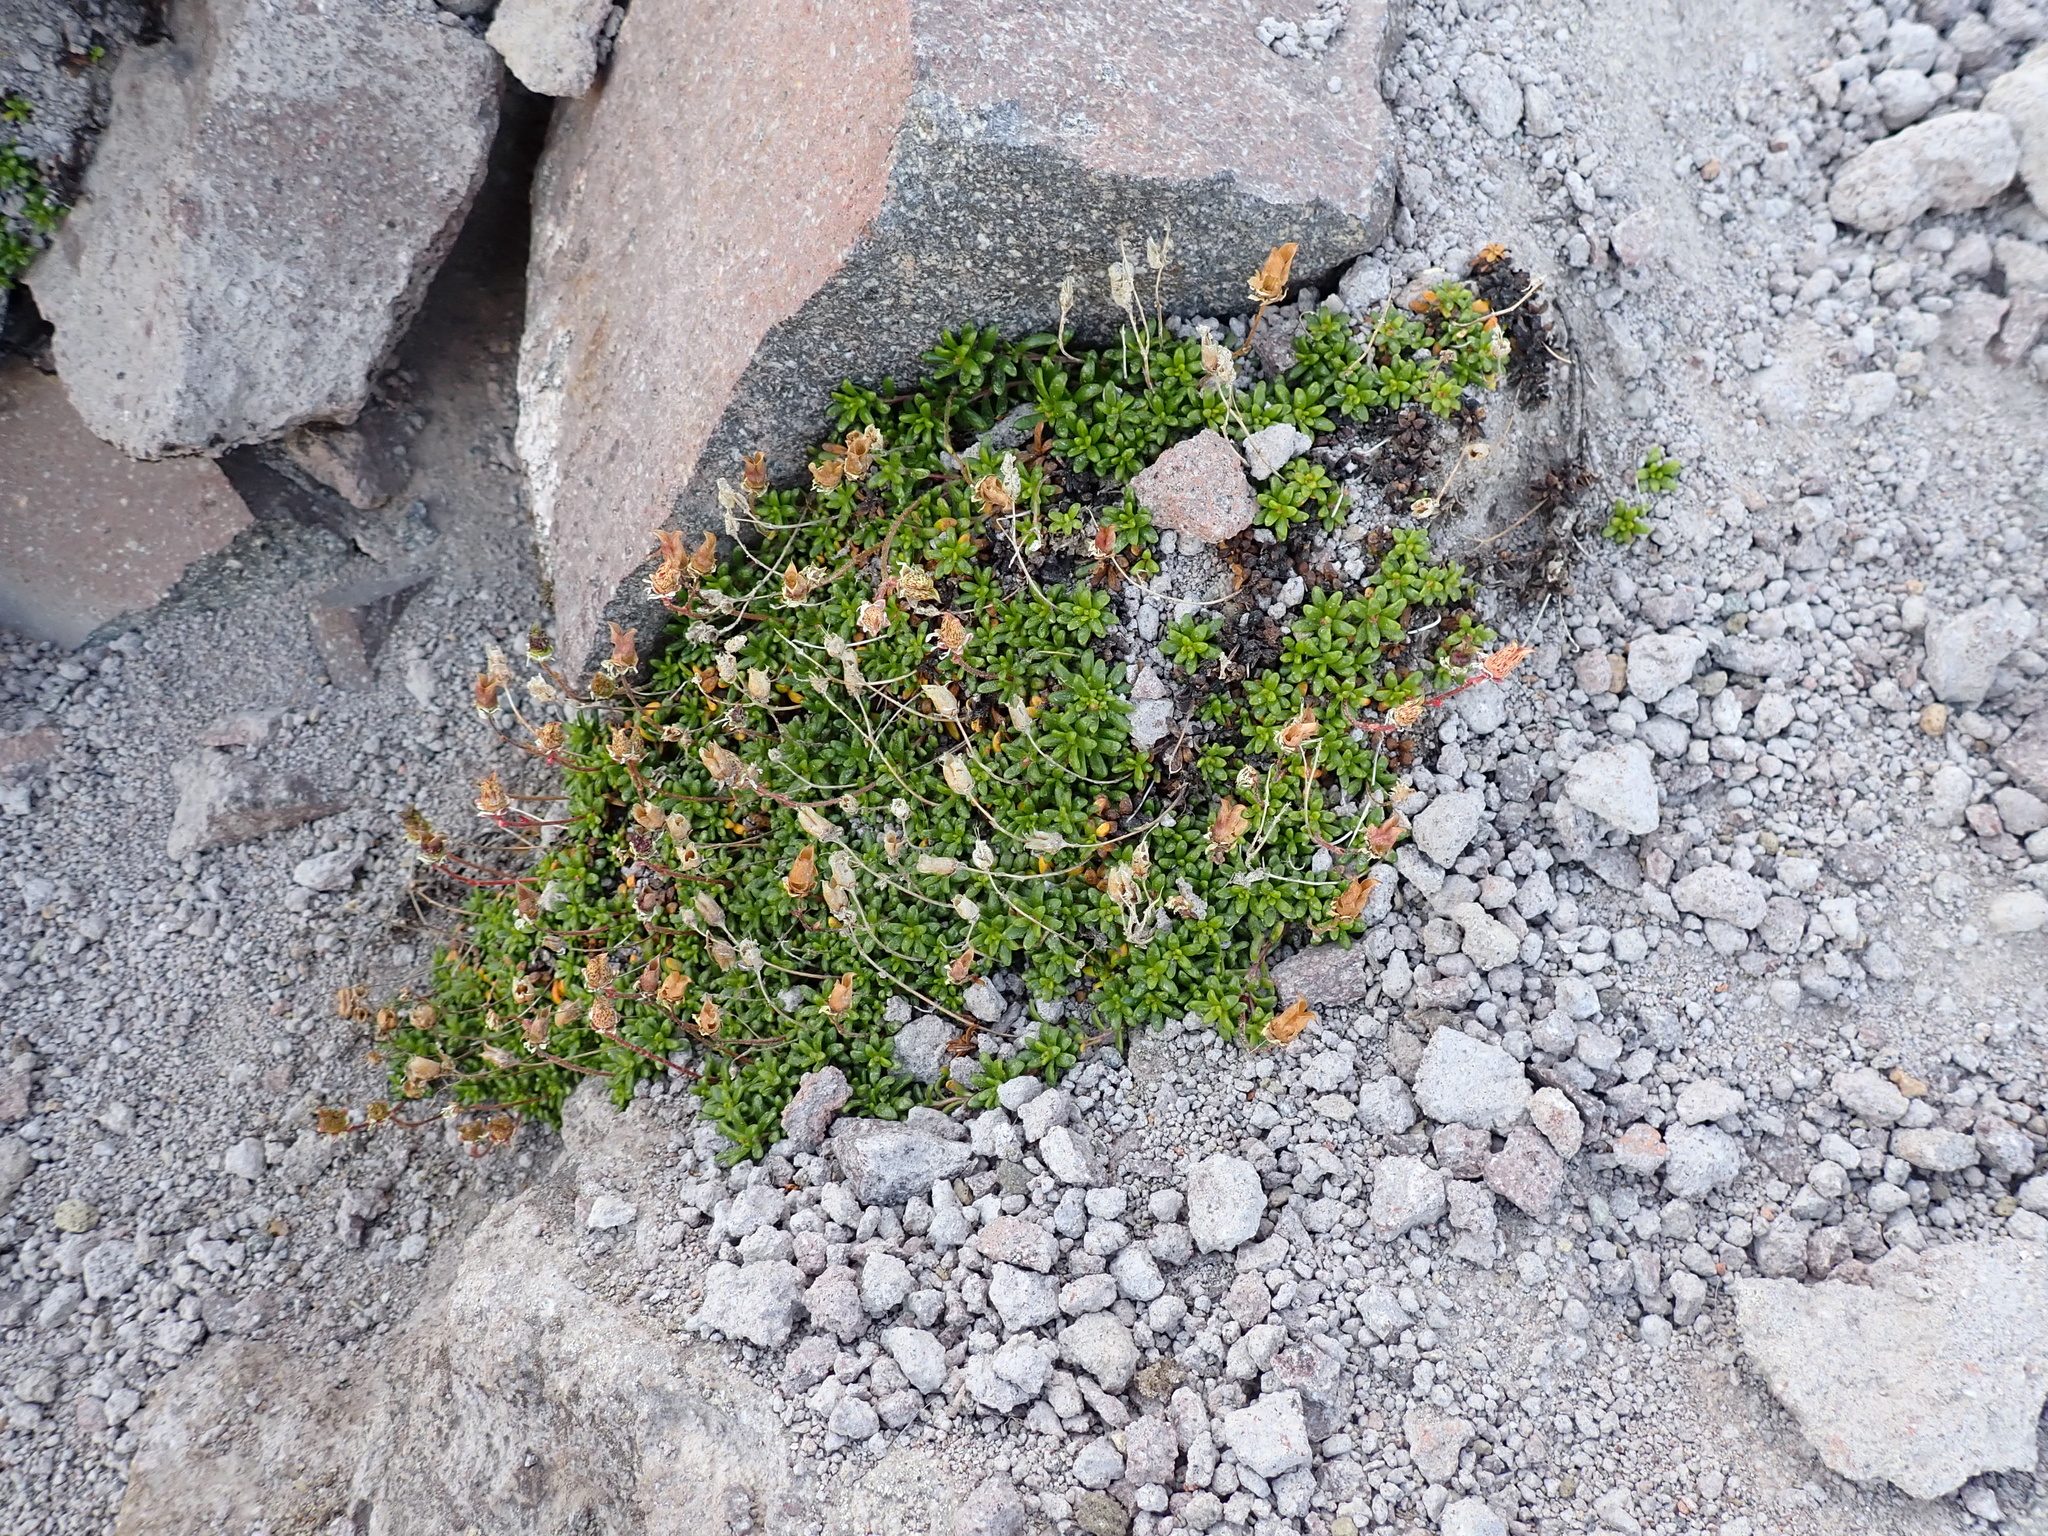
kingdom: Plantae
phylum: Tracheophyta
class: Magnoliopsida
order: Saxifragales
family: Saxifragaceae
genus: Micranthes
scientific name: Micranthes tolmiei
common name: Tolmie's saxifrage
